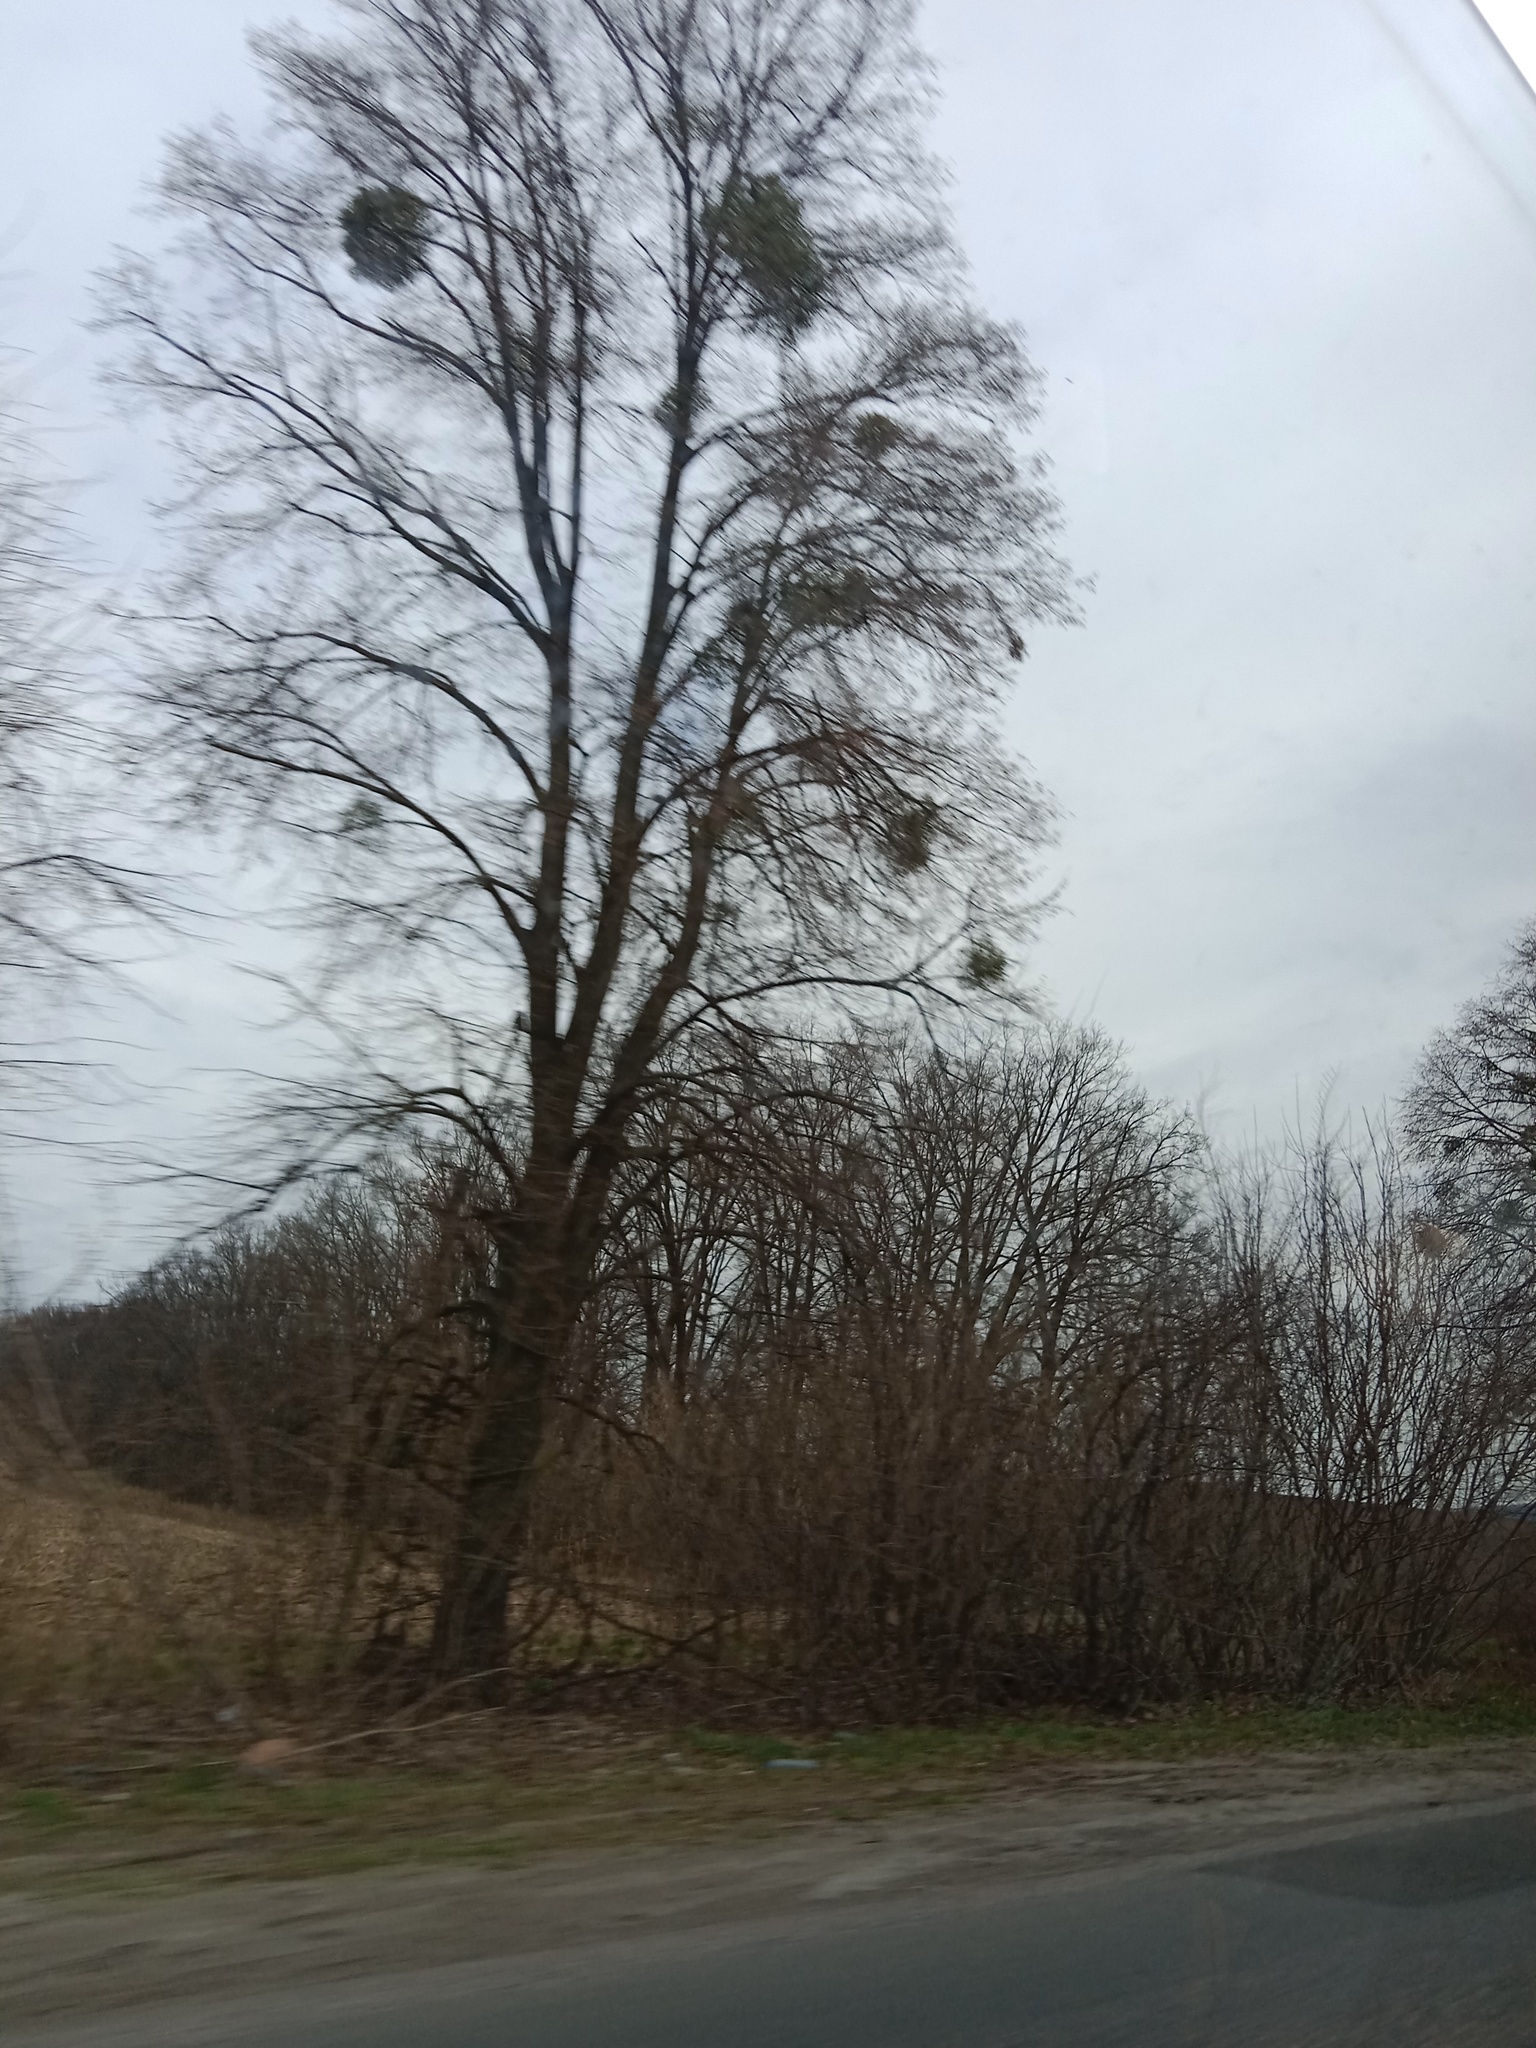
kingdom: Plantae
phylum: Tracheophyta
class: Magnoliopsida
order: Santalales
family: Viscaceae
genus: Viscum
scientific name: Viscum album
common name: Mistletoe
